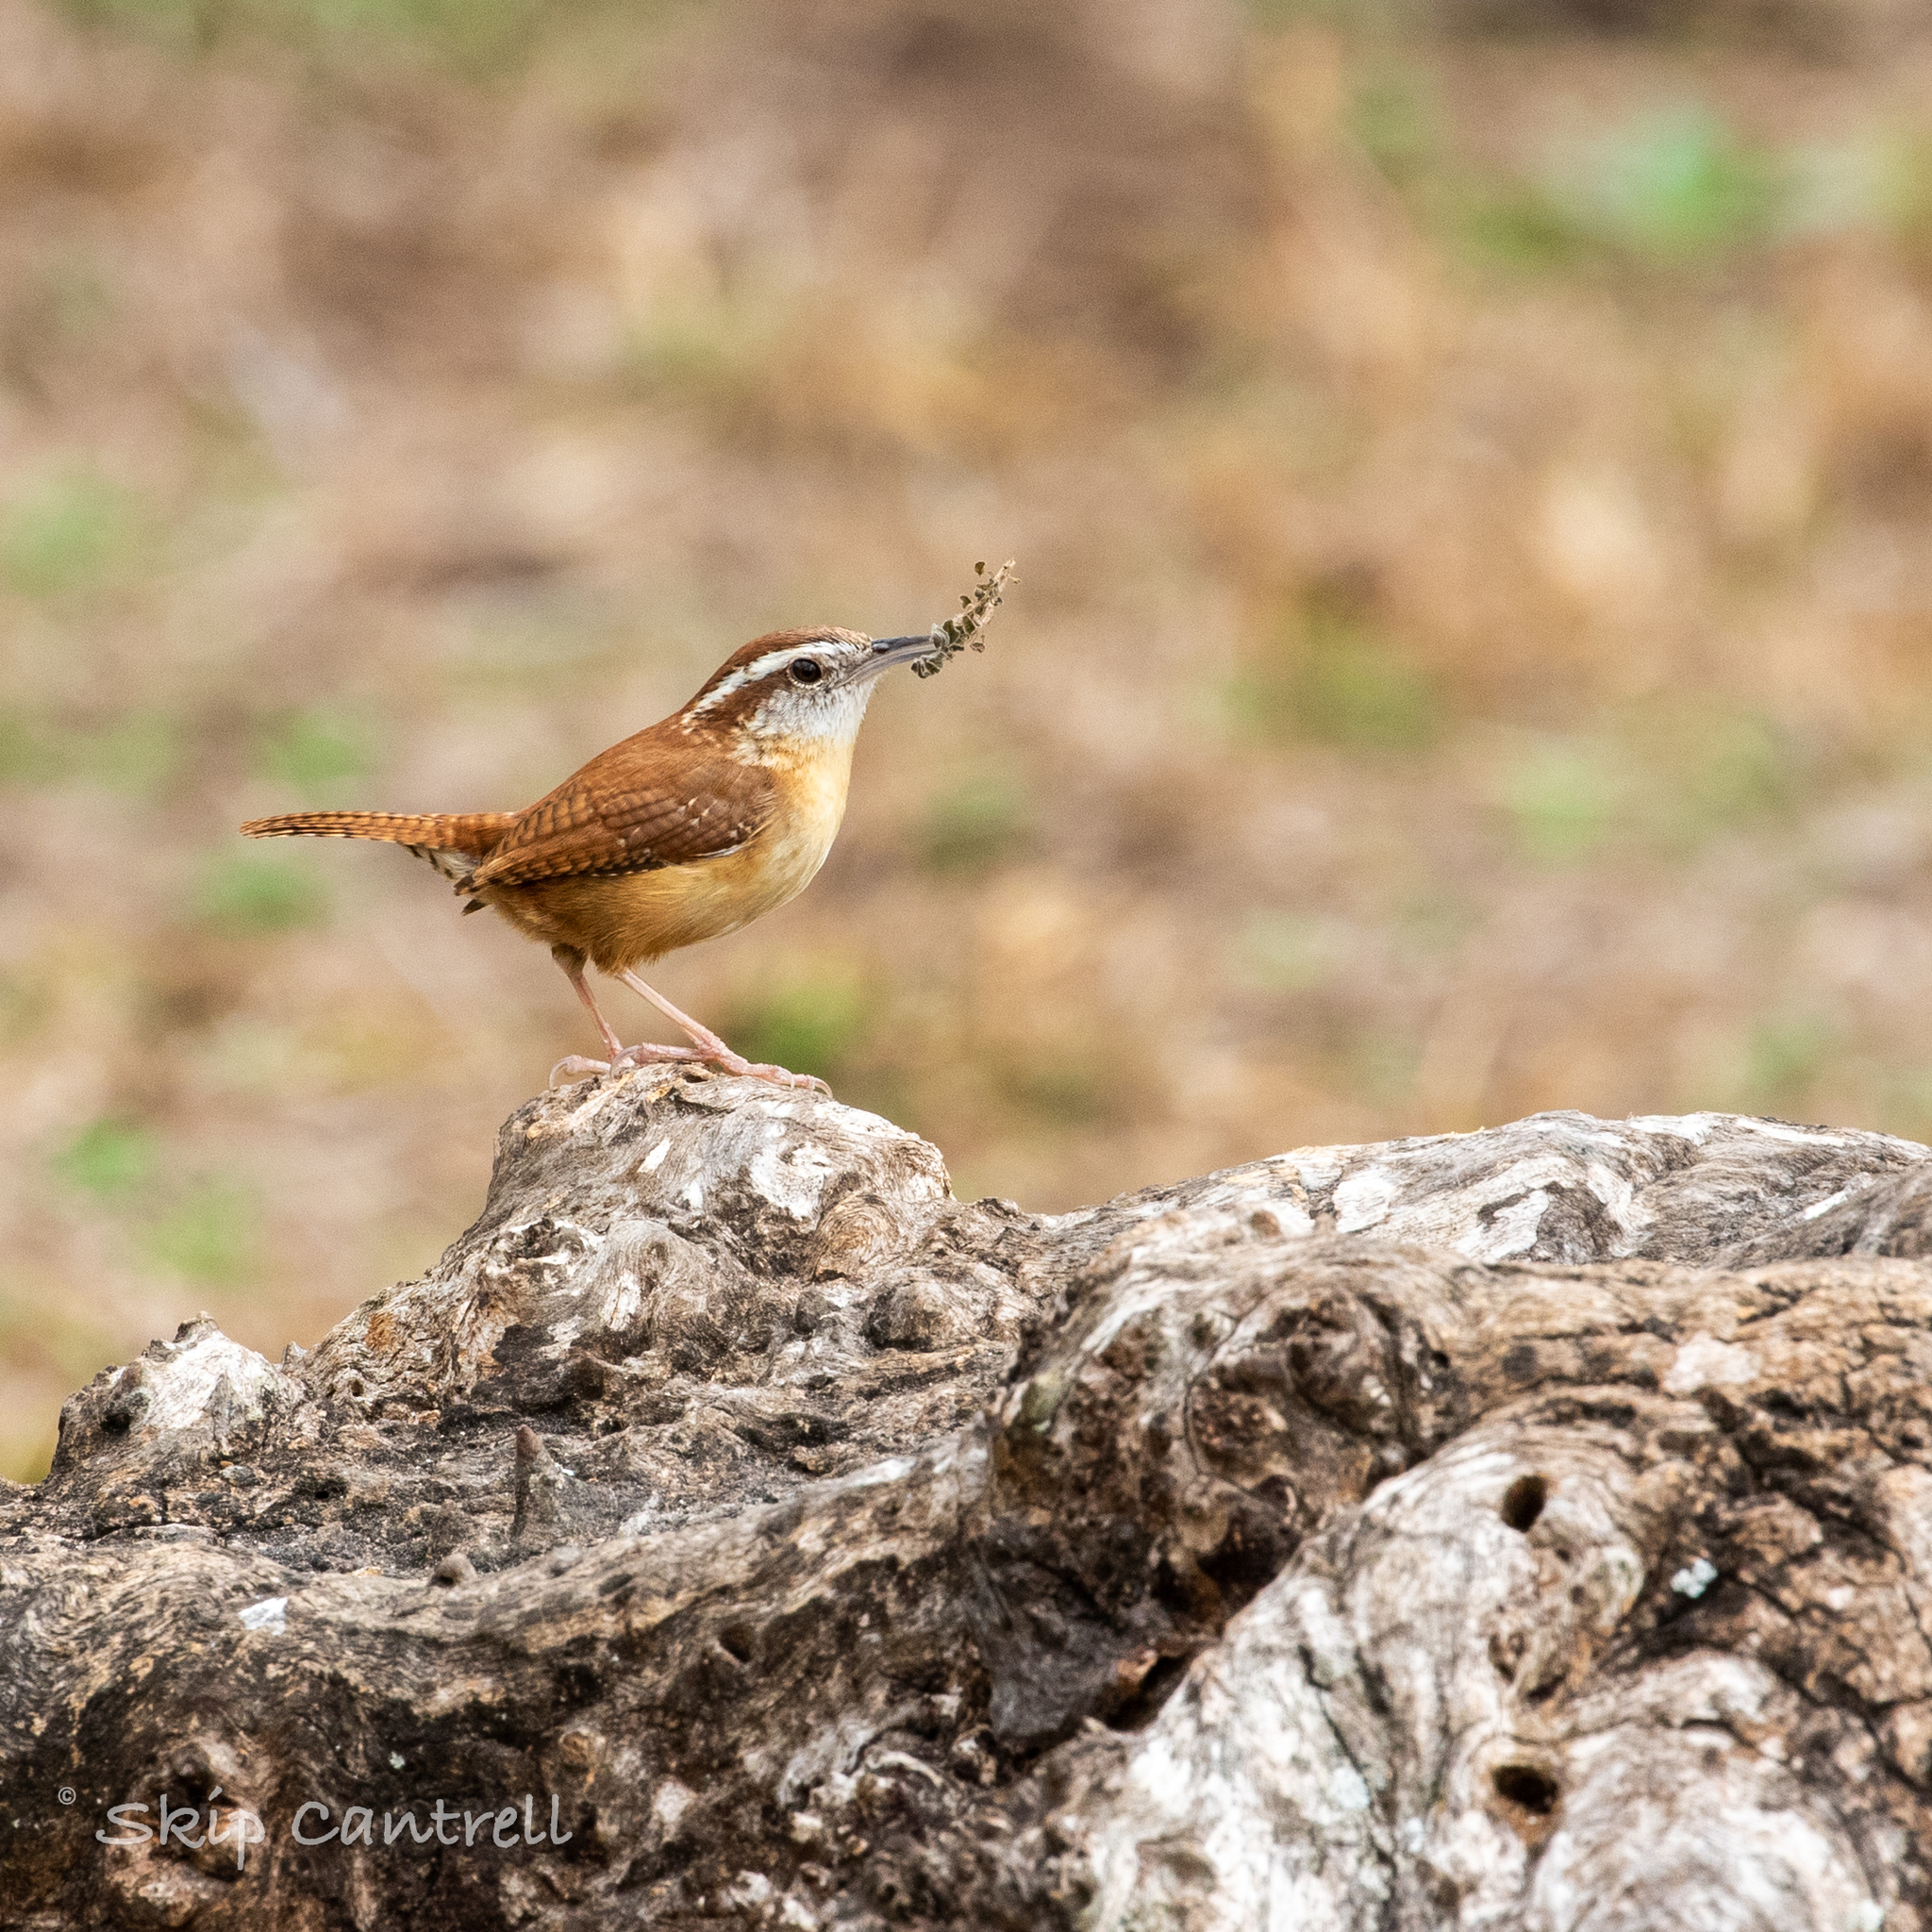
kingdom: Animalia
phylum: Chordata
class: Aves
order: Passeriformes
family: Troglodytidae
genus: Thryothorus
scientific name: Thryothorus ludovicianus
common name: Carolina wren
